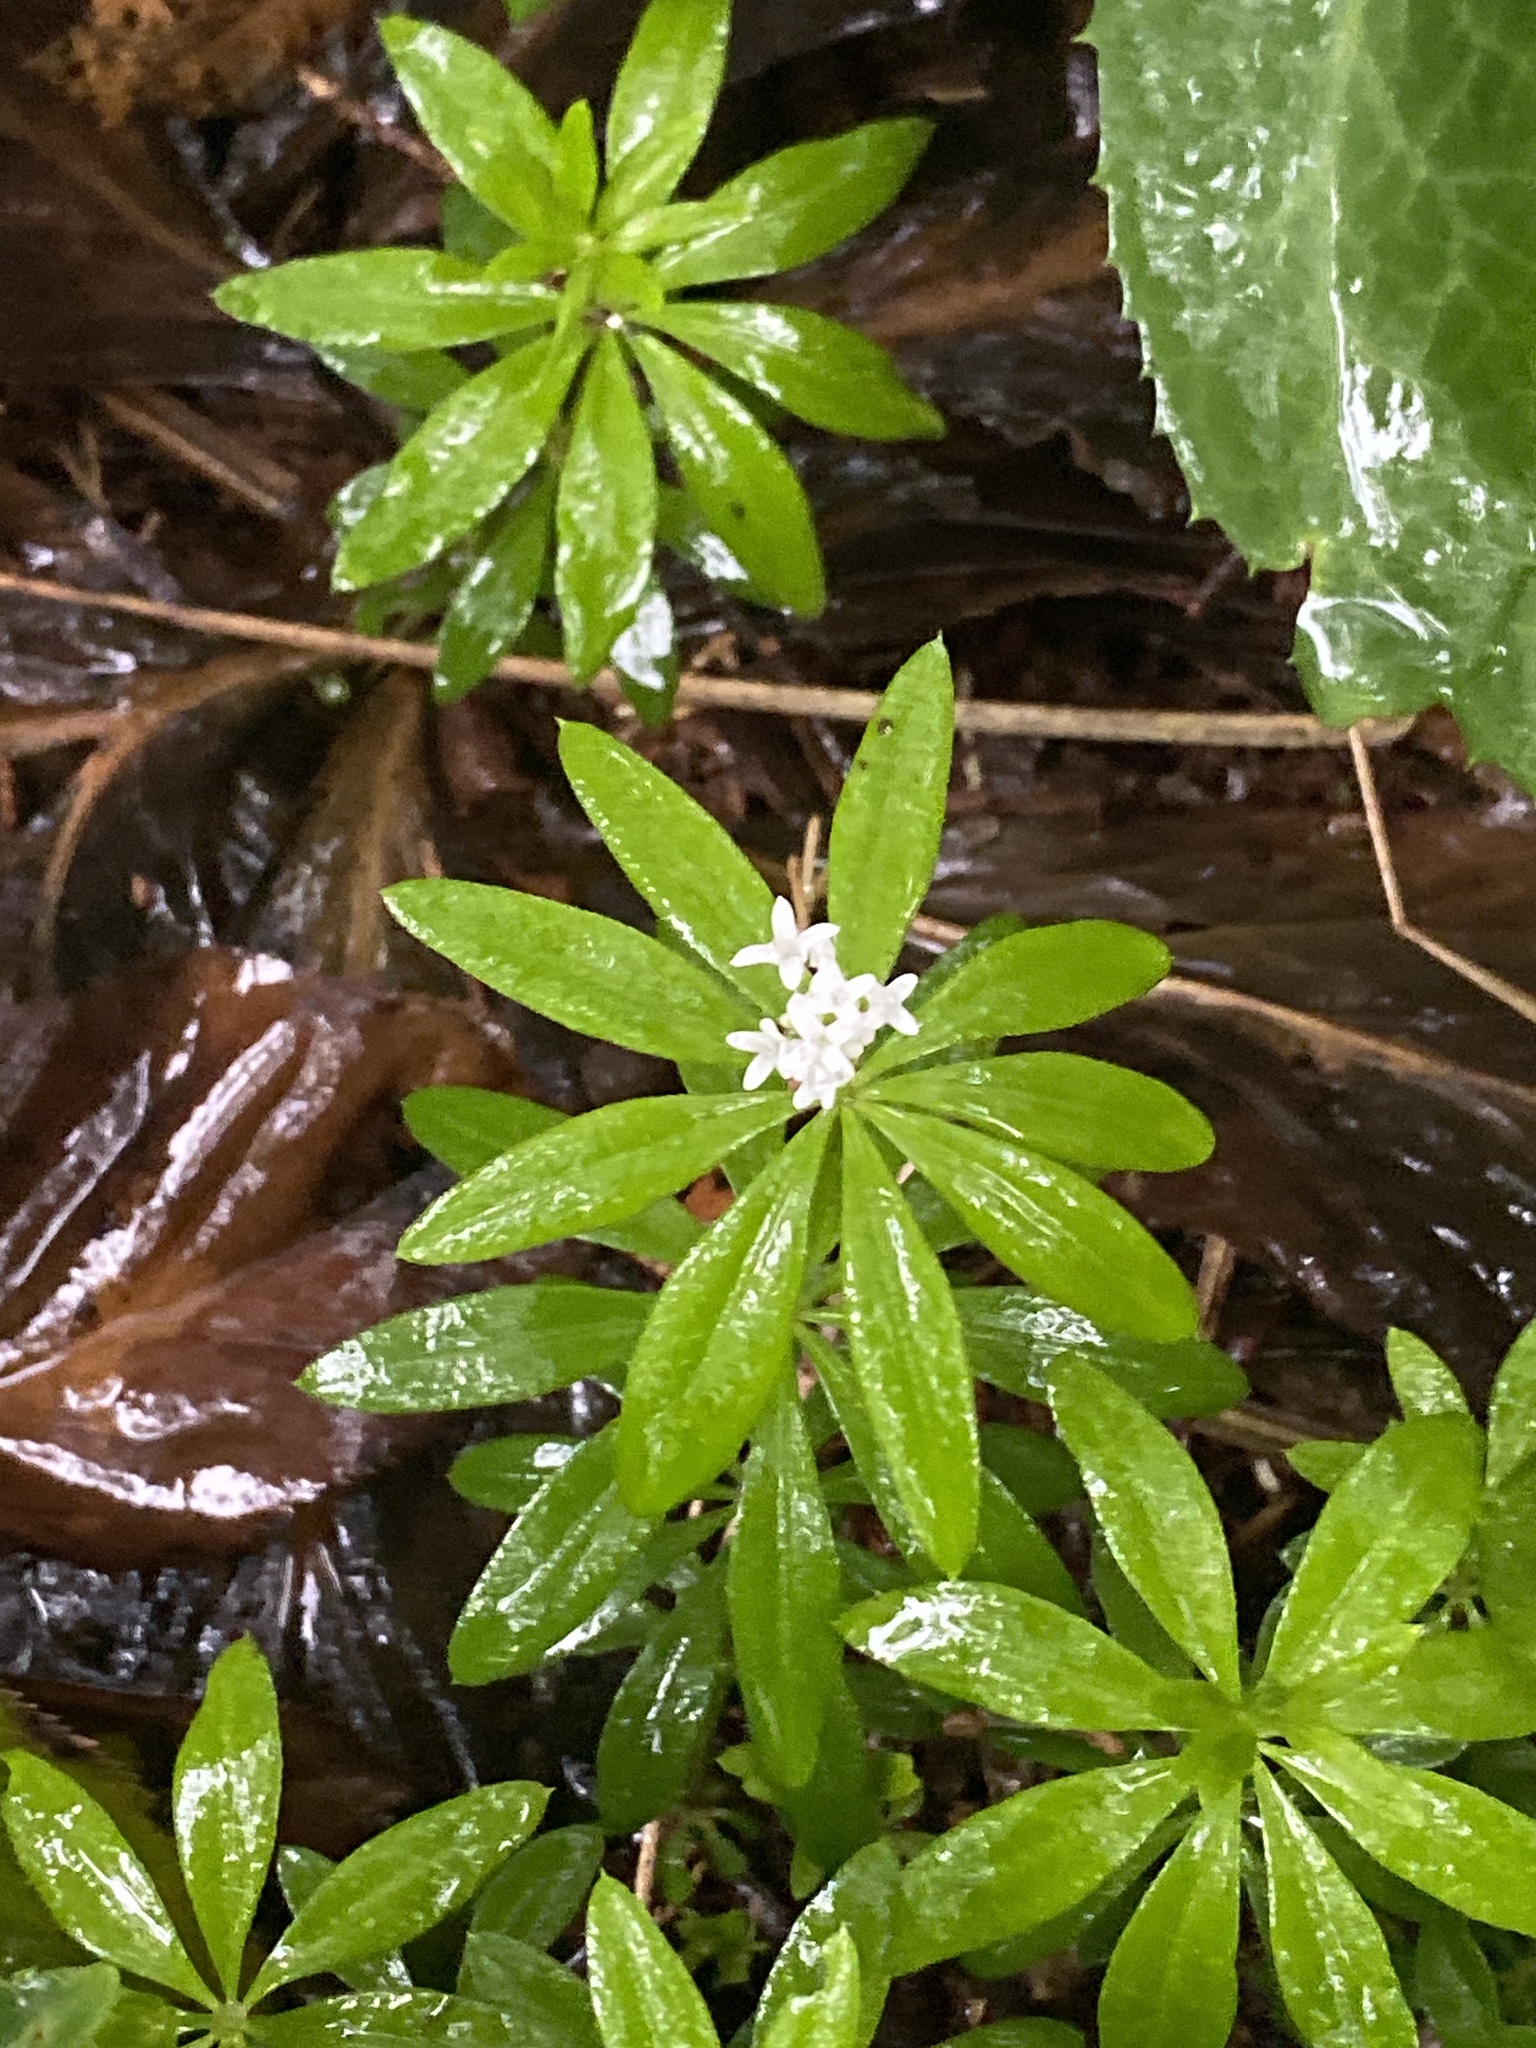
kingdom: Plantae
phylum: Tracheophyta
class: Magnoliopsida
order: Gentianales
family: Rubiaceae
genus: Galium
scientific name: Galium odoratum
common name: Sweet woodruff
